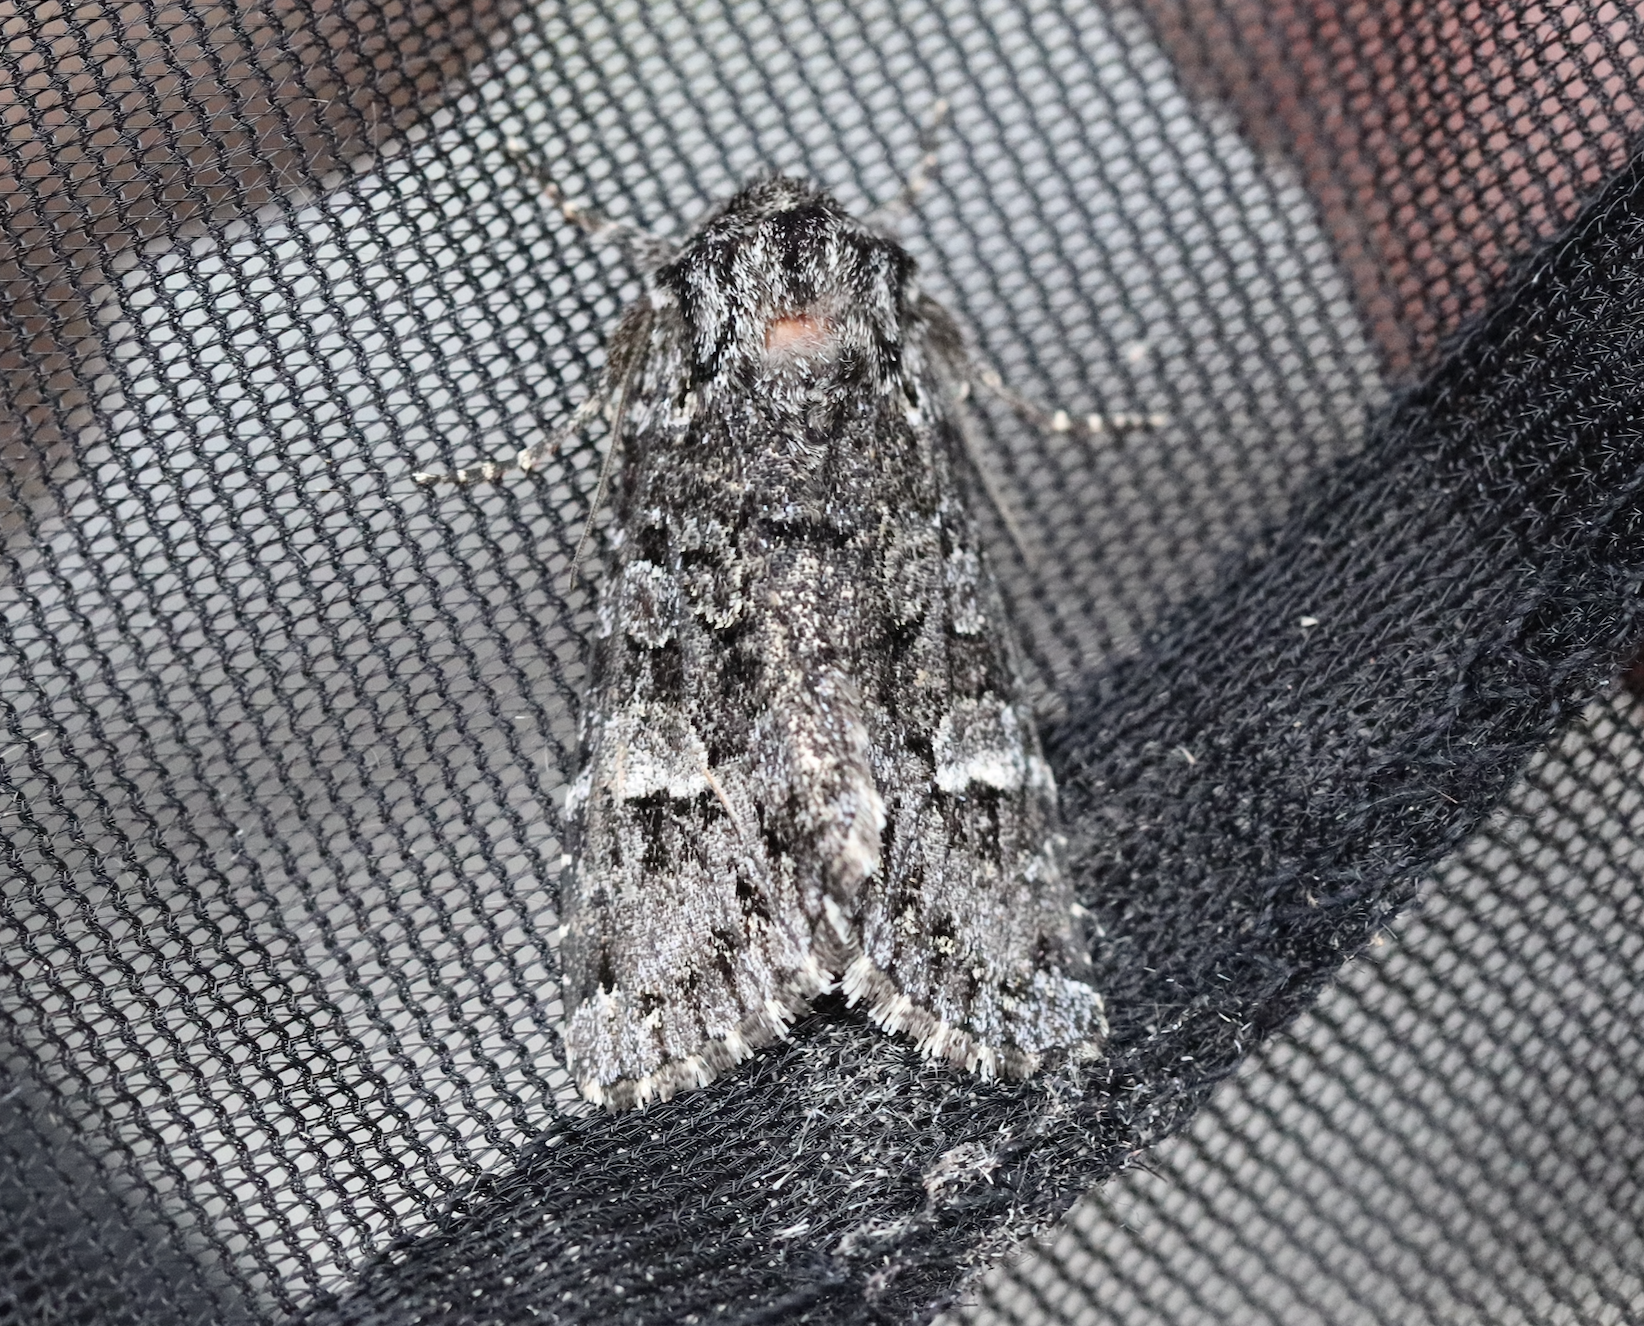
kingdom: Animalia
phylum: Arthropoda
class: Insecta
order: Lepidoptera
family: Noctuidae
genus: Papestra
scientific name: Papestra biren
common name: Glaucous shears
